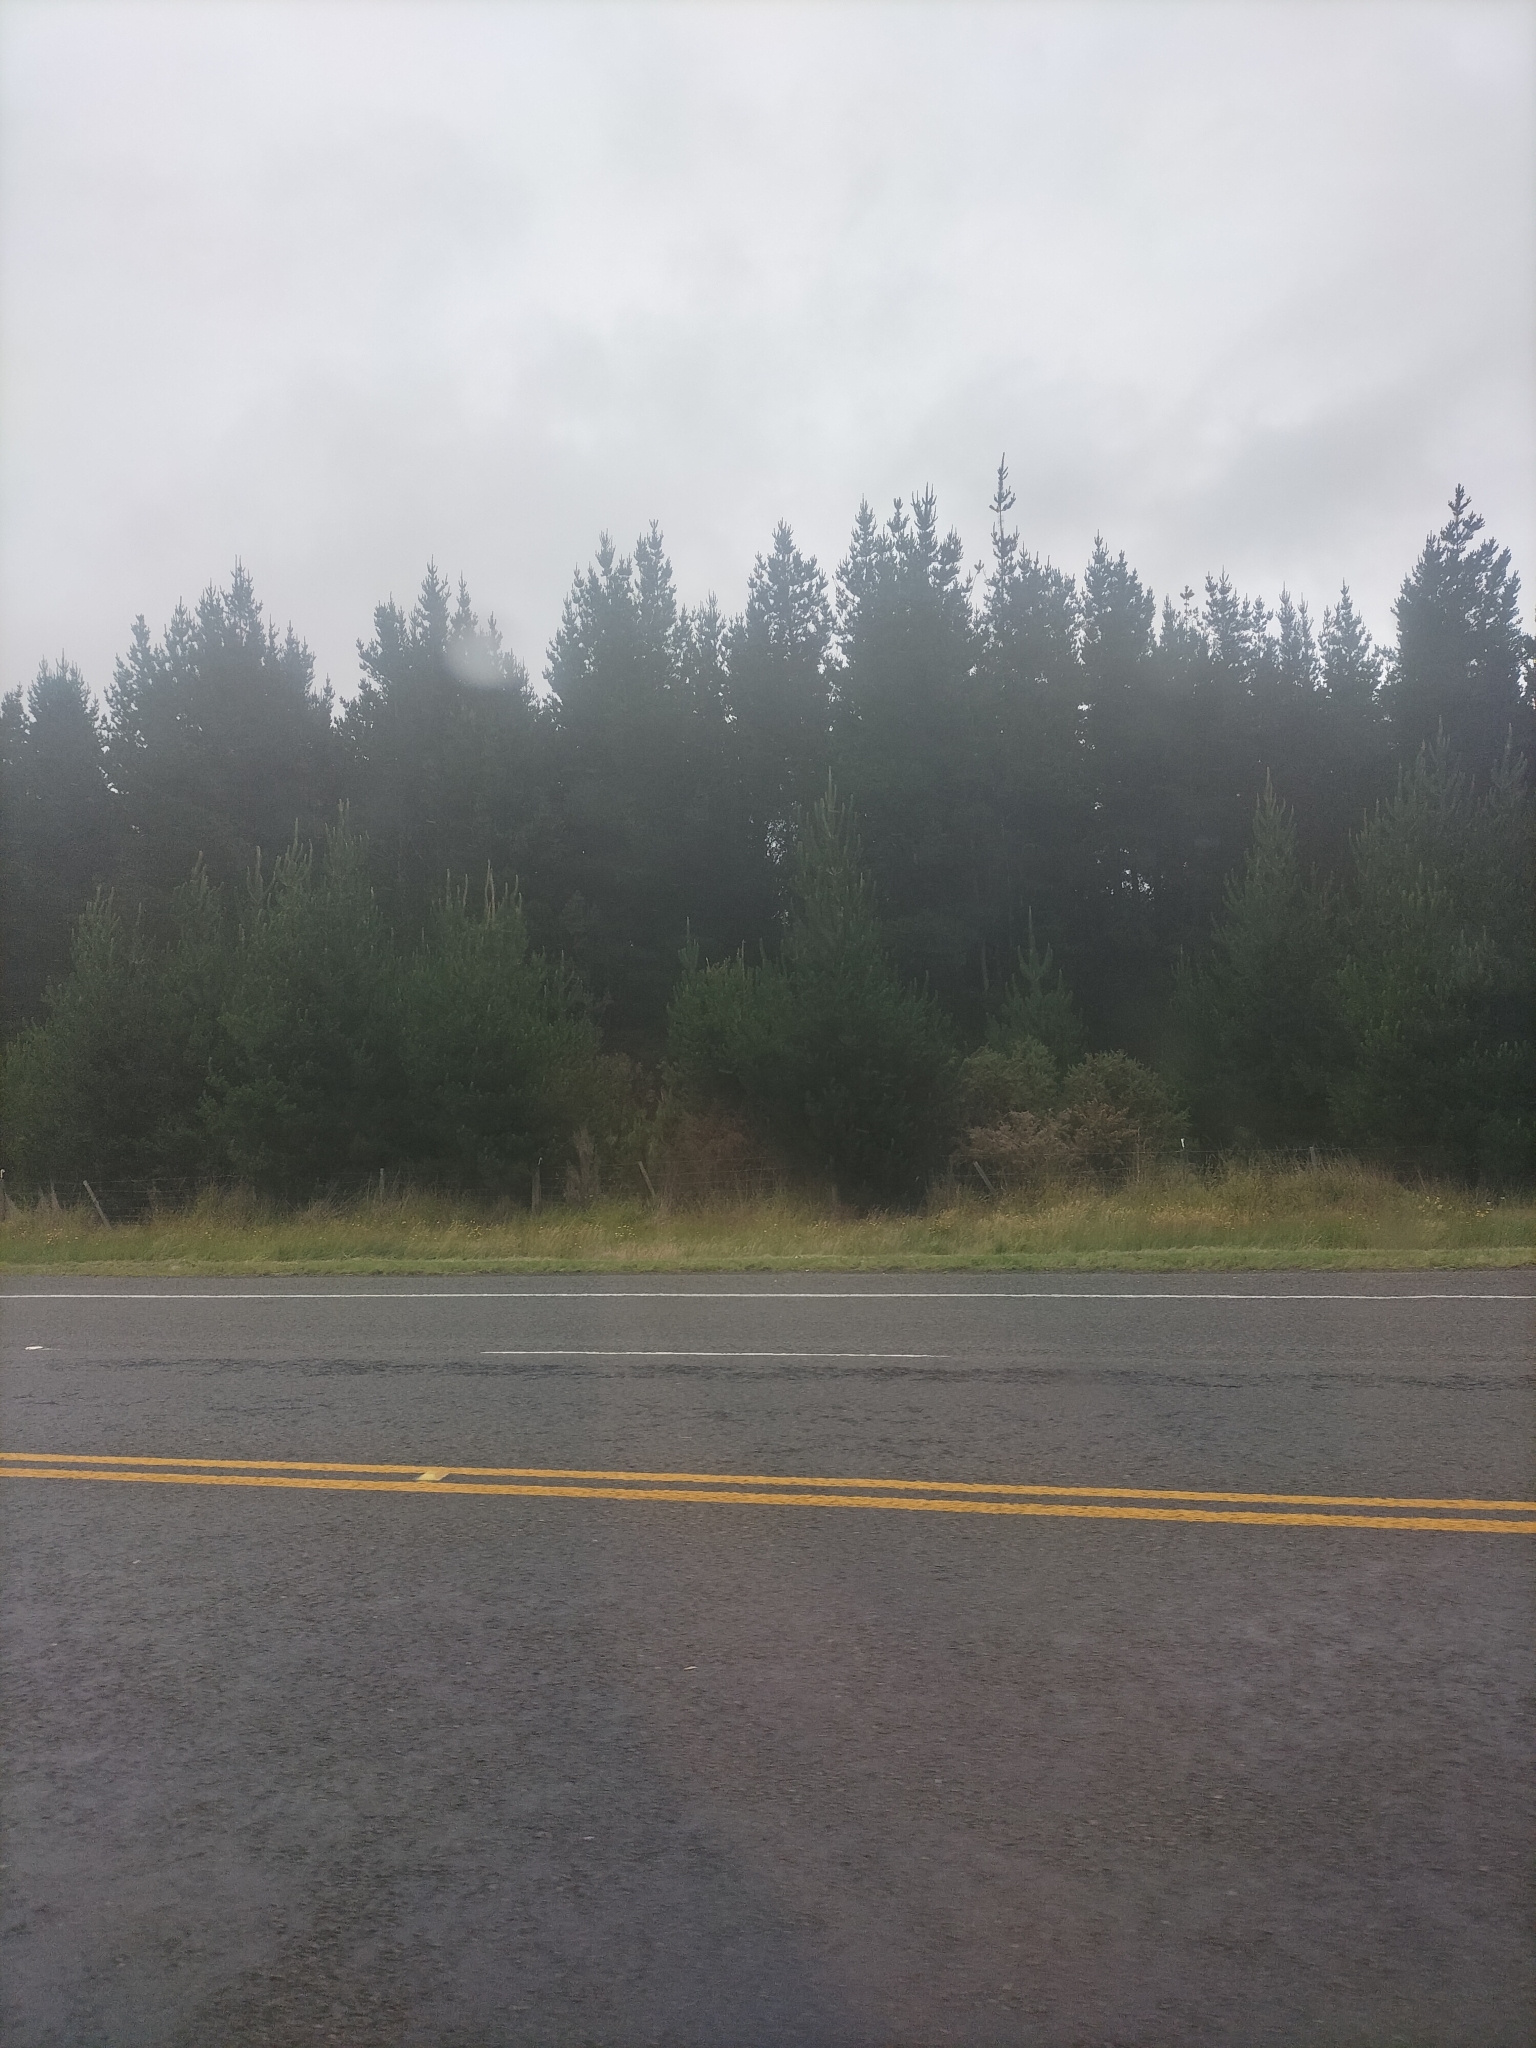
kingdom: Plantae
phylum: Tracheophyta
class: Pinopsida
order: Pinales
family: Pinaceae
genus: Pinus
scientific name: Pinus radiata
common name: Monterey pine
